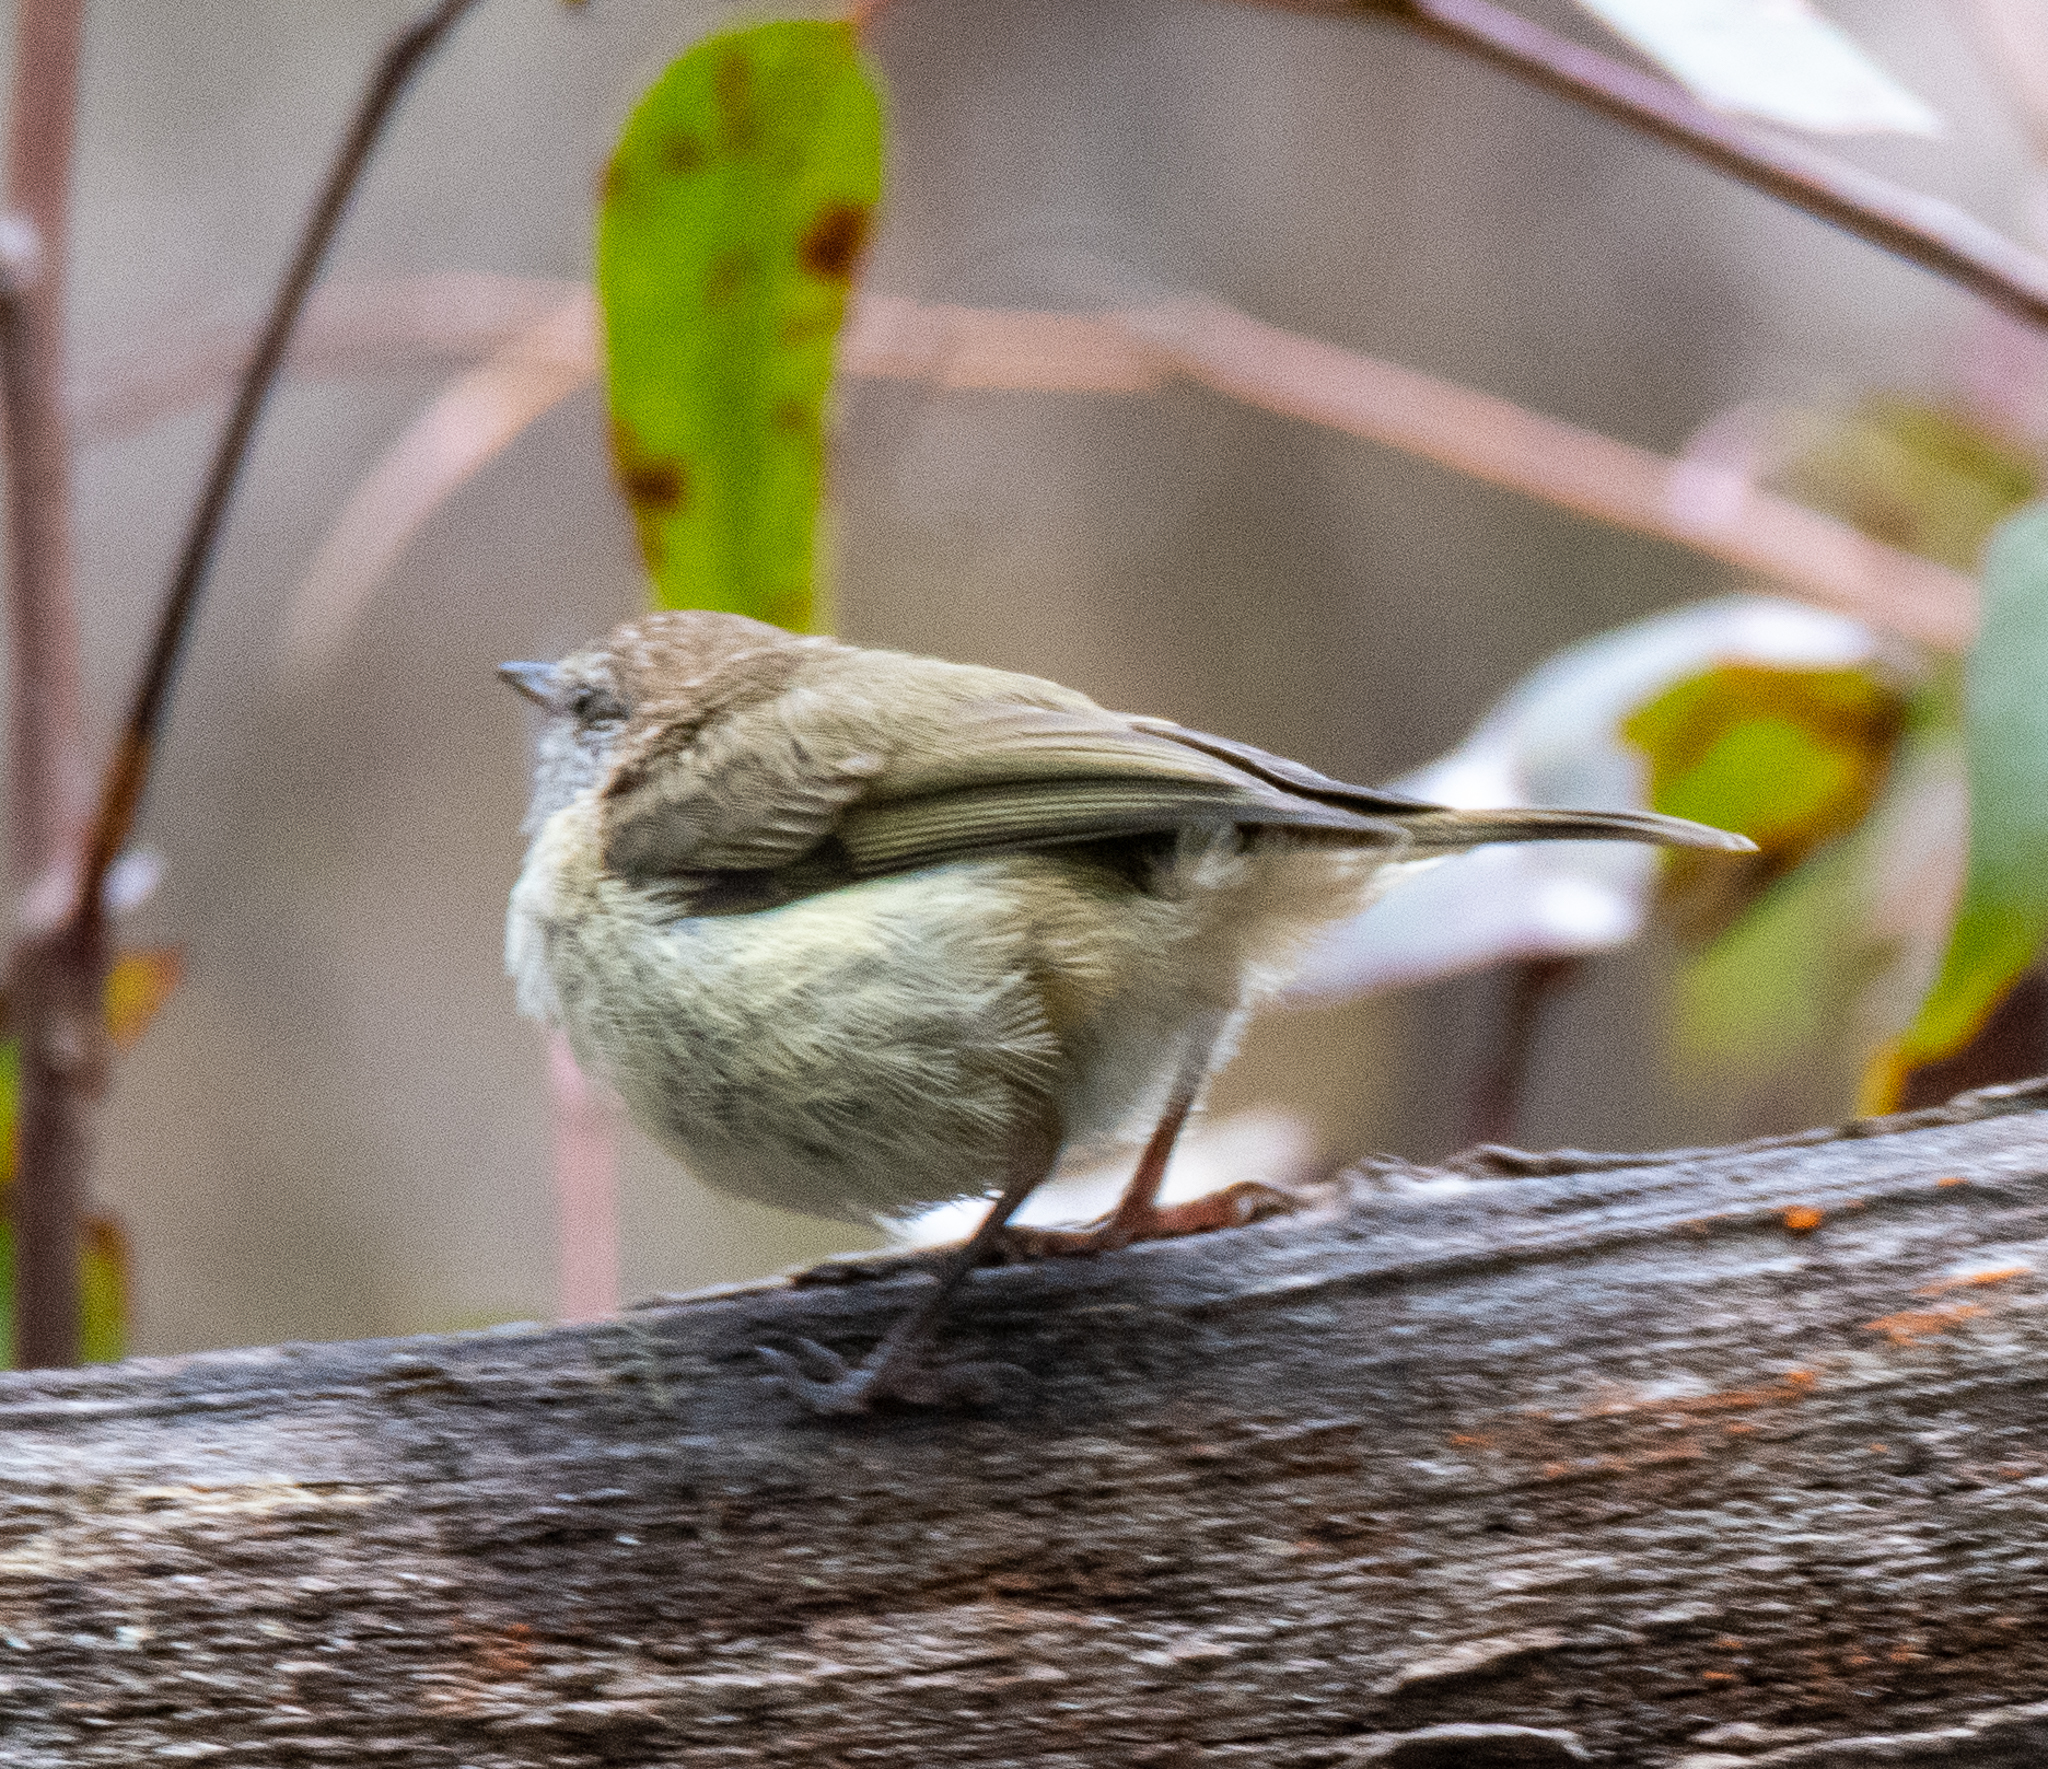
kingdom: Animalia
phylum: Chordata
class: Aves
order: Passeriformes
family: Acanthizidae
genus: Acanthiza
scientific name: Acanthiza lineata
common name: Striated thornbill
